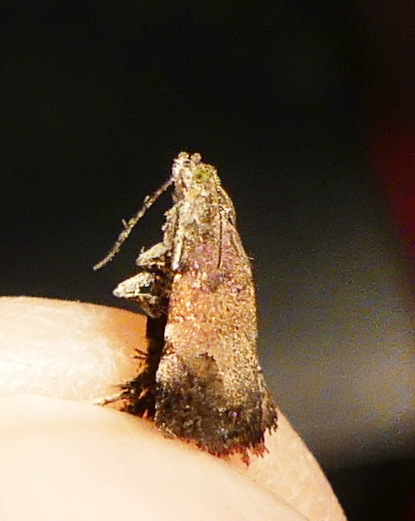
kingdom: Animalia
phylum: Arthropoda
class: Insecta
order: Lepidoptera
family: Choreutidae
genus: Choreutis
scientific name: Choreutis diana
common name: Inverness twitcher
